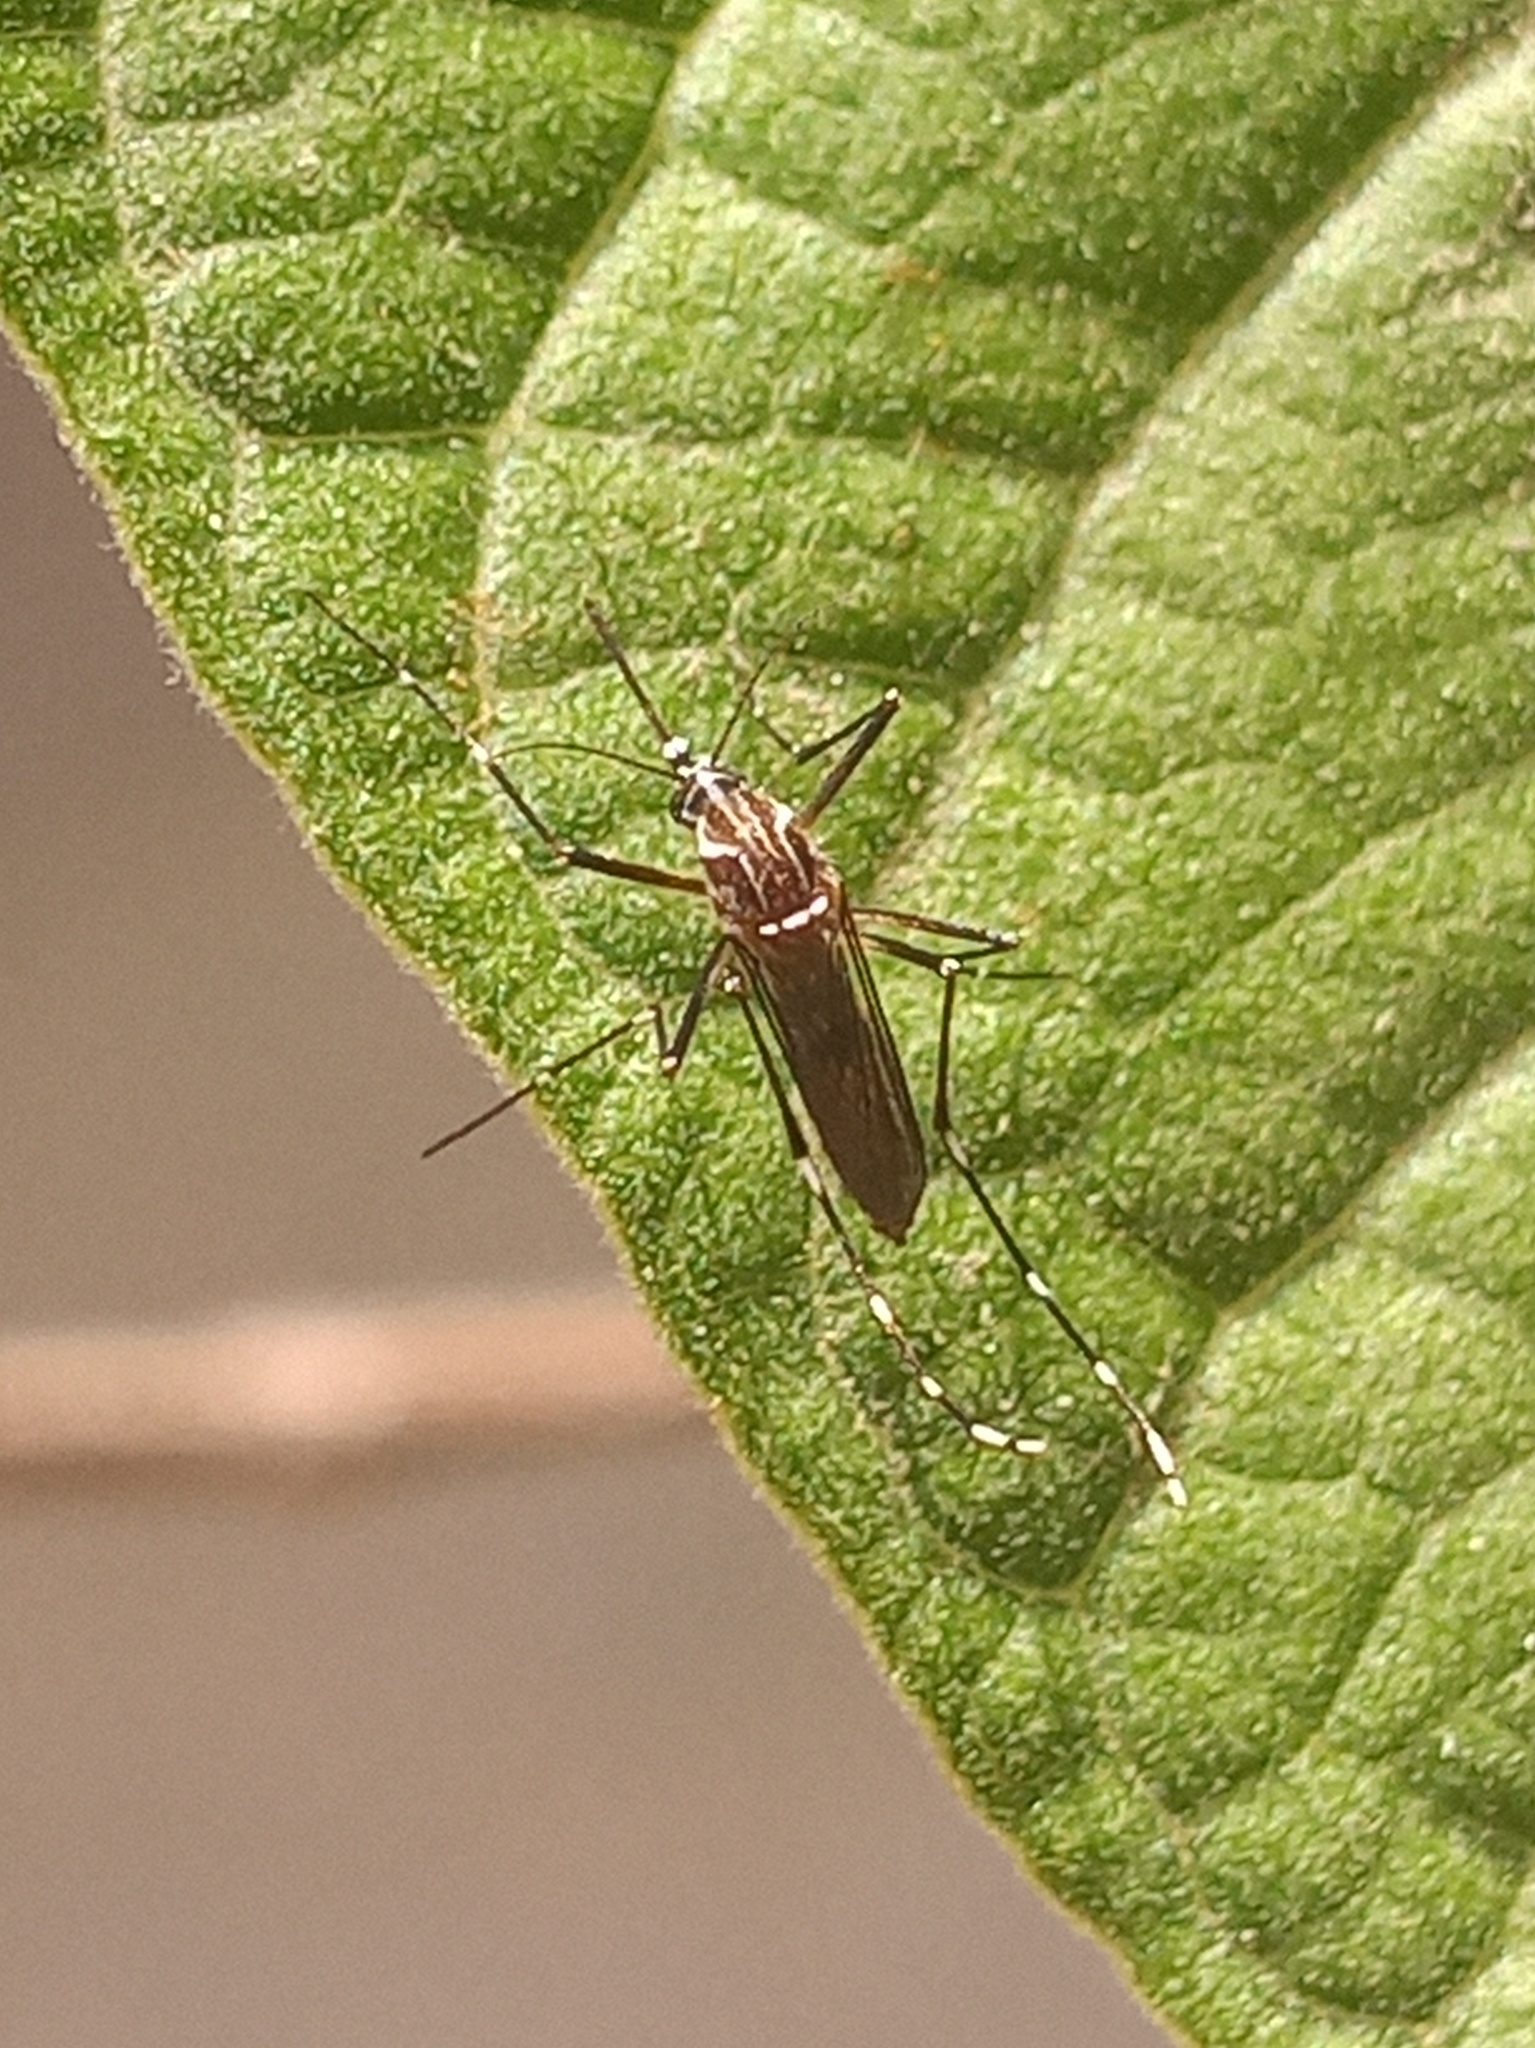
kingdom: Animalia
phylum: Arthropoda
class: Insecta
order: Diptera
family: Culicidae
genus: Aedes
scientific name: Aedes aegypti
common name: Yellow fever mosquito
